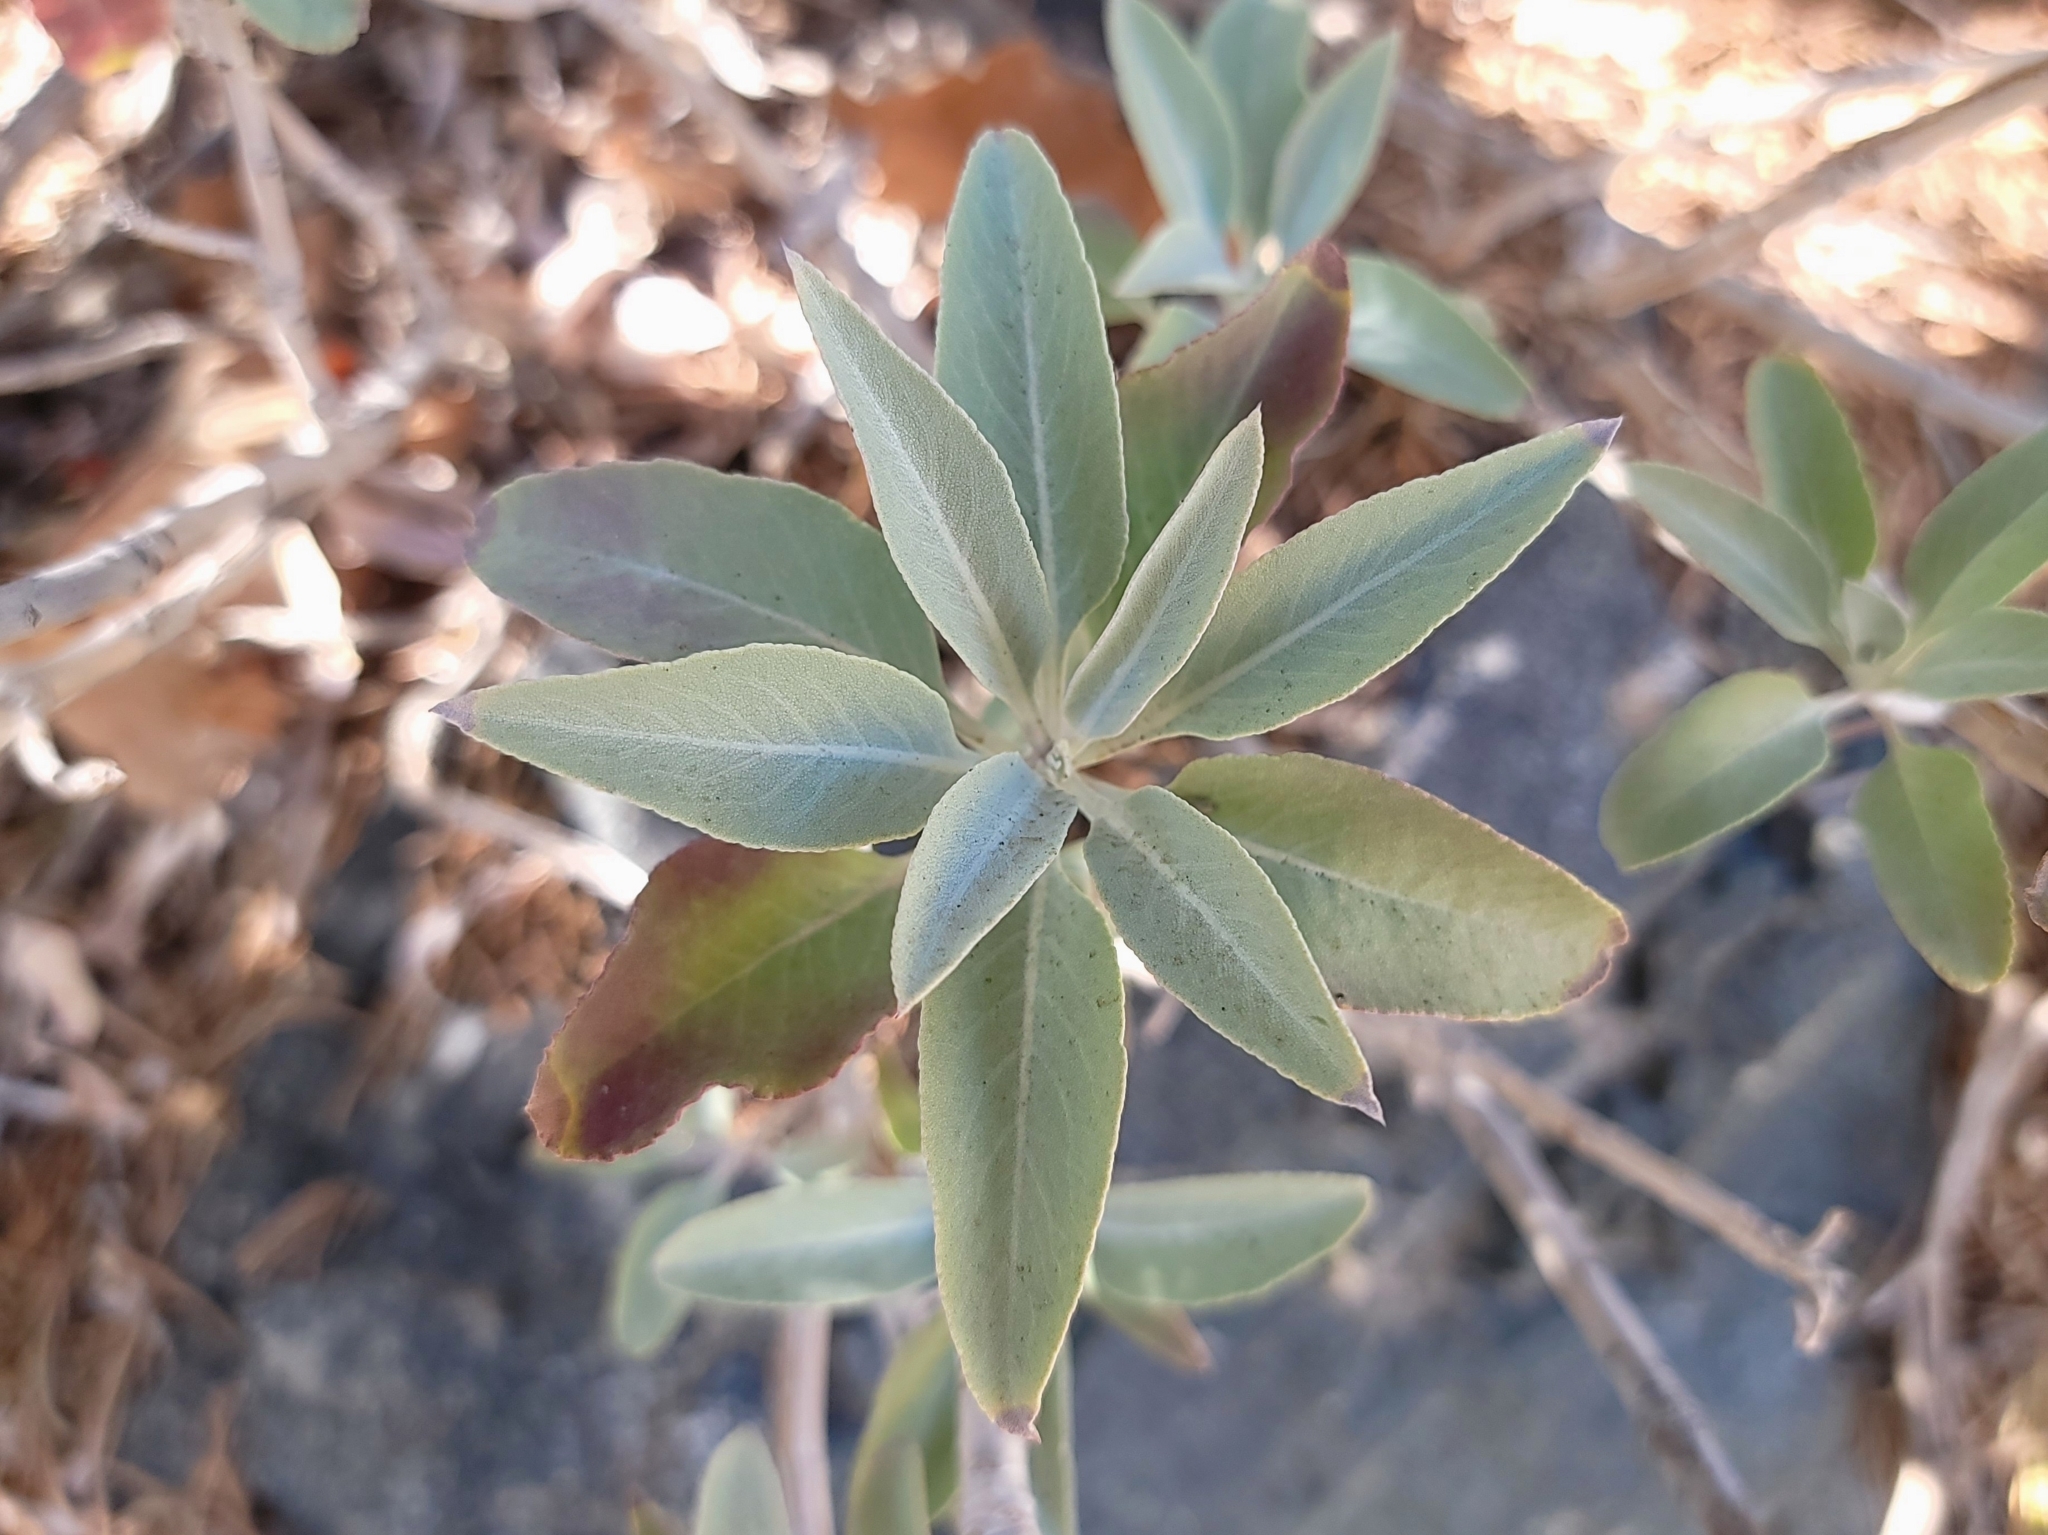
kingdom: Plantae
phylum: Tracheophyta
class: Magnoliopsida
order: Lamiales
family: Lamiaceae
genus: Salvia
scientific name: Salvia apiana
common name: White sage
